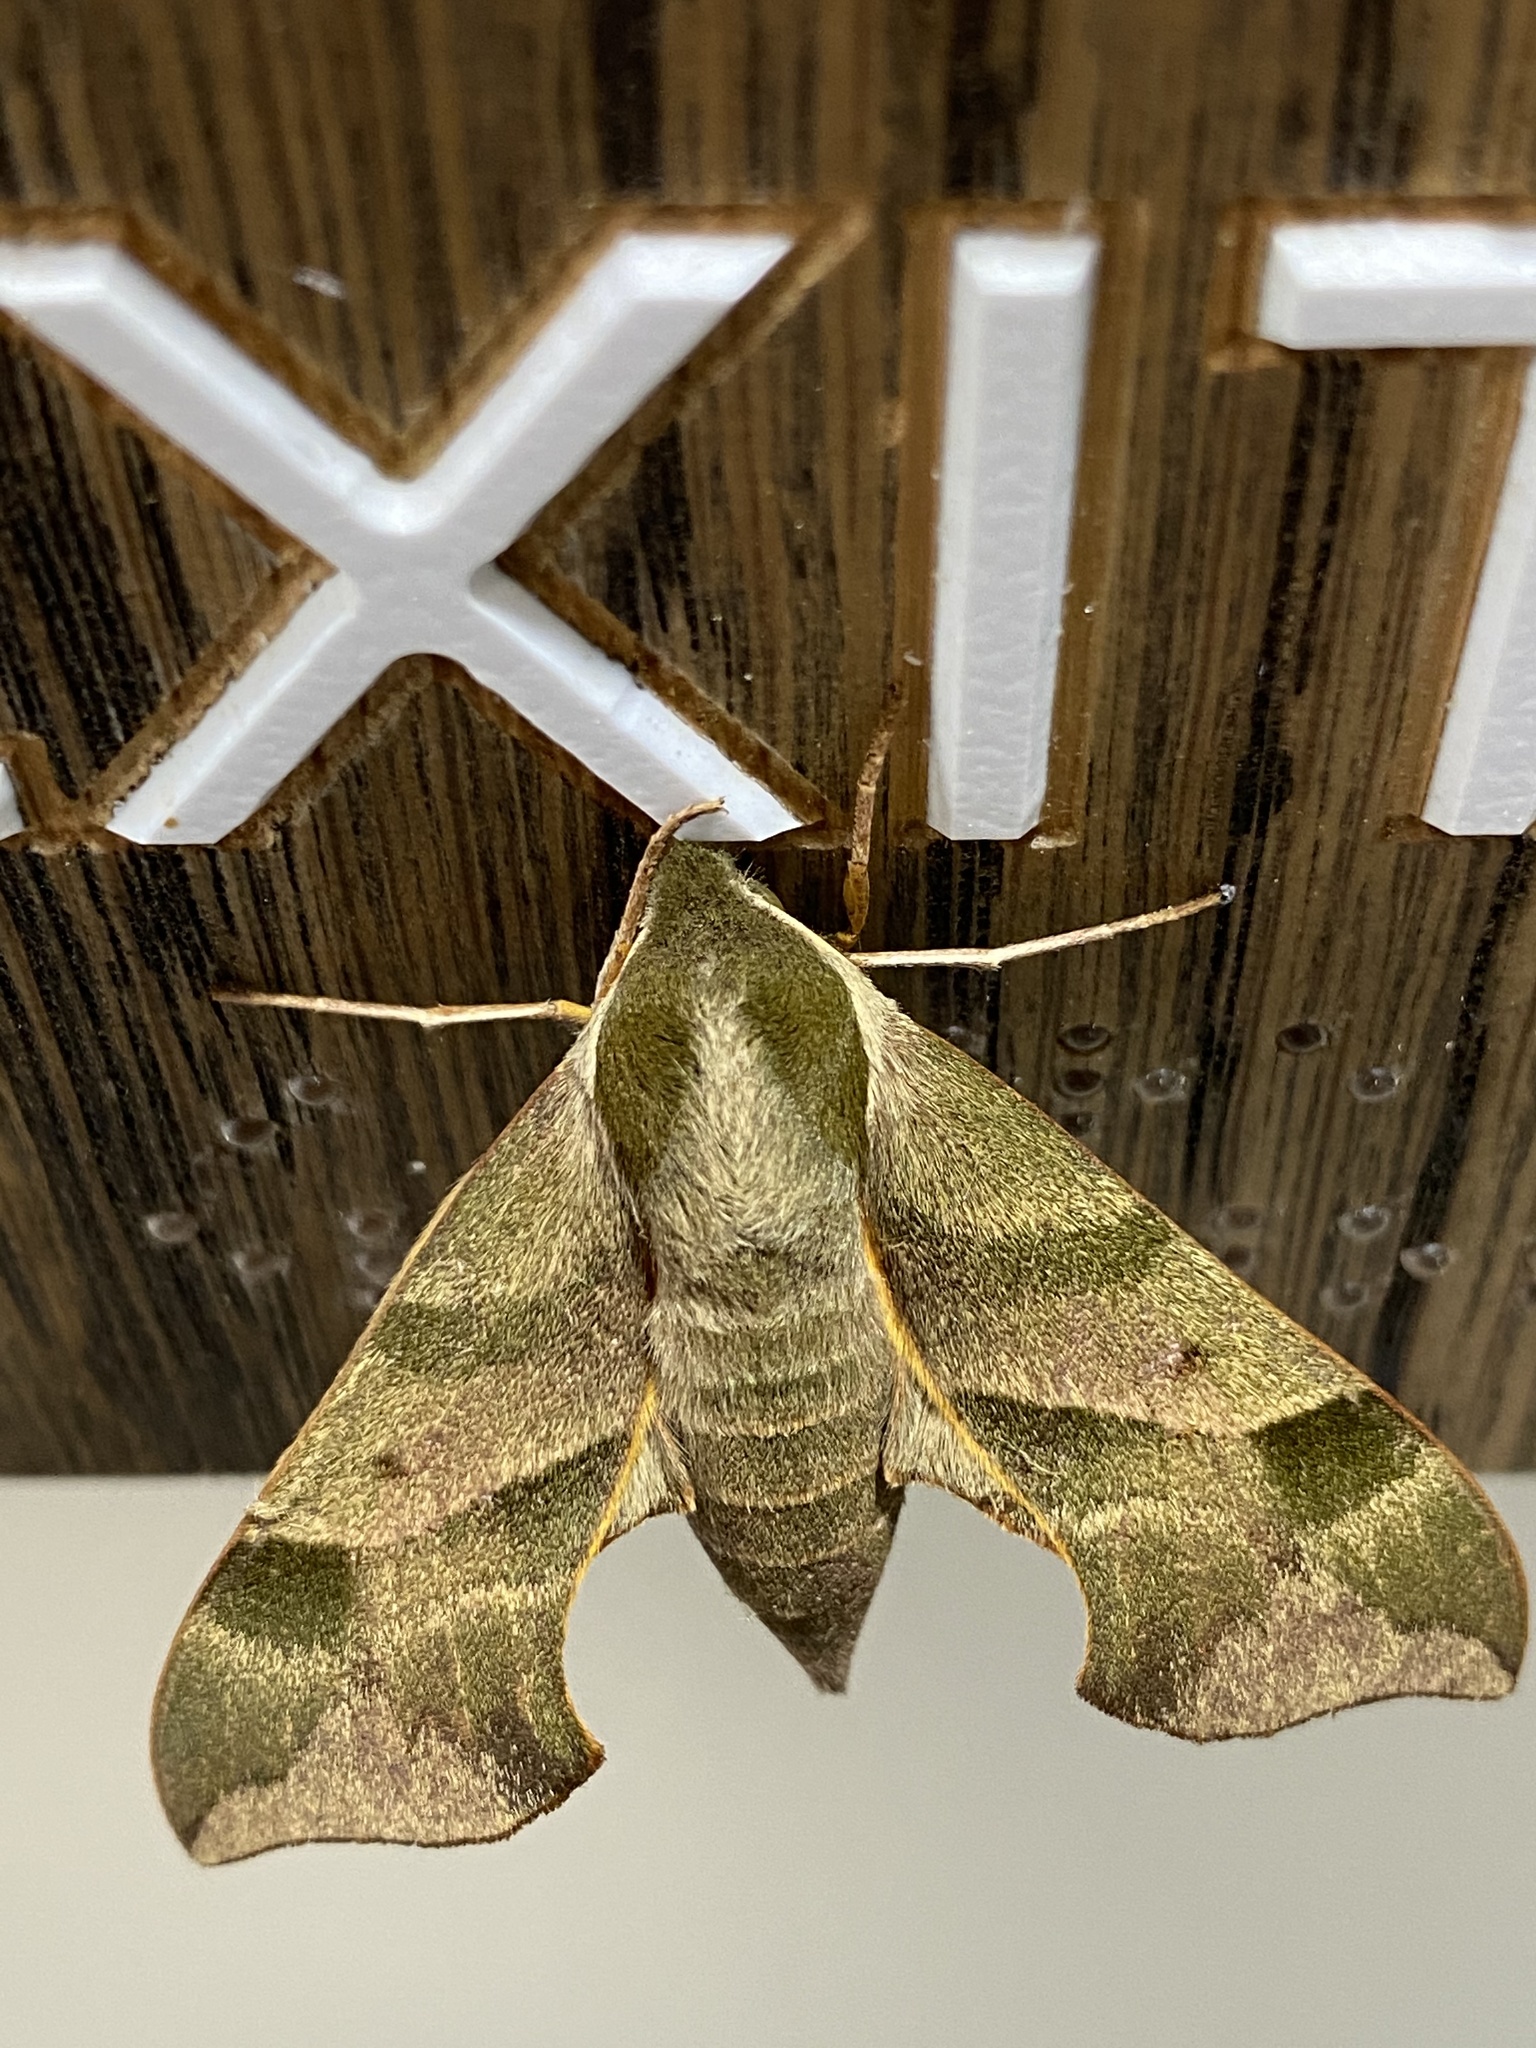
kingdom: Animalia
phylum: Arthropoda
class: Insecta
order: Lepidoptera
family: Sphingidae
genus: Darapsa
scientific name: Darapsa myron
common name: Hog sphinx
